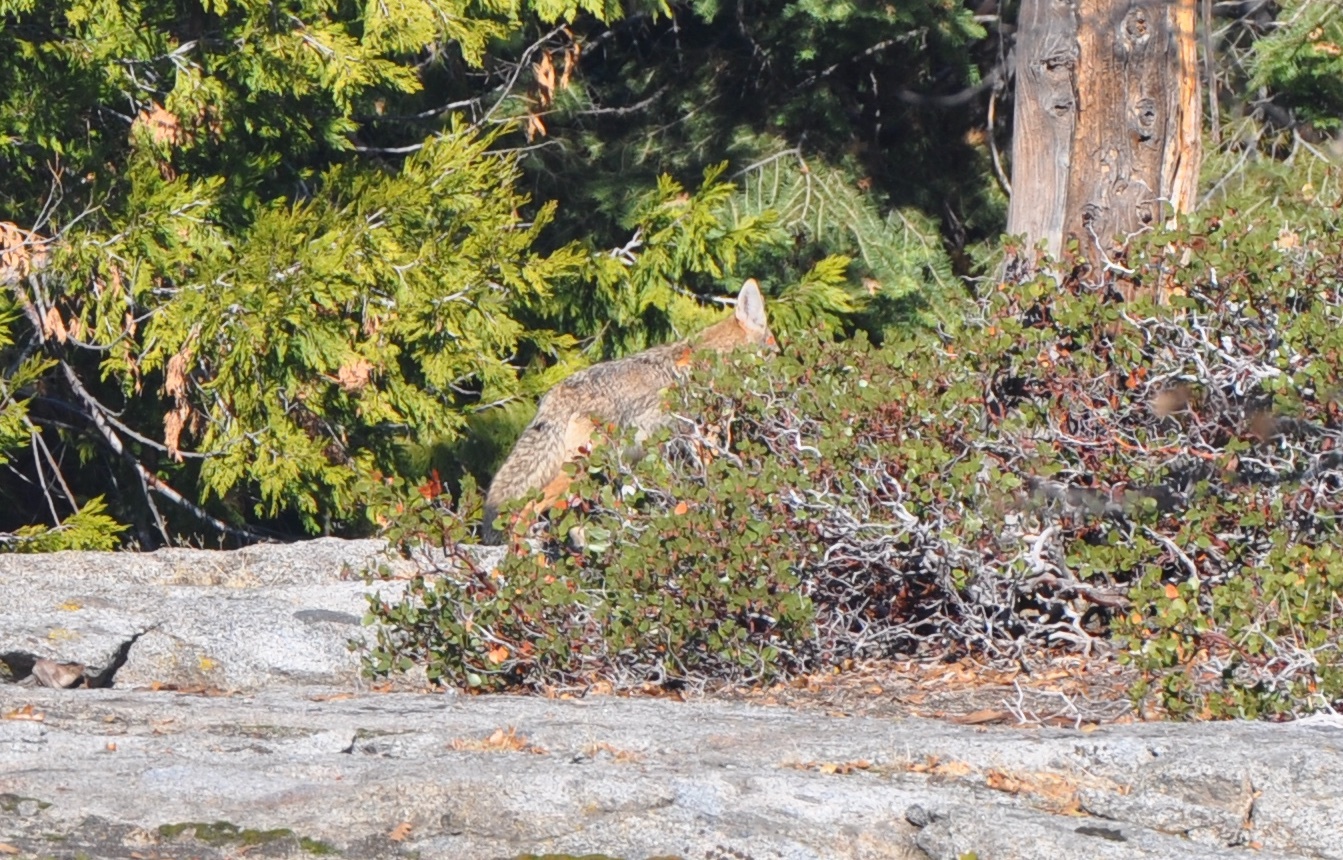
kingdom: Animalia
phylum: Chordata
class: Mammalia
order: Carnivora
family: Canidae
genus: Canis
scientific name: Canis latrans
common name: Coyote
